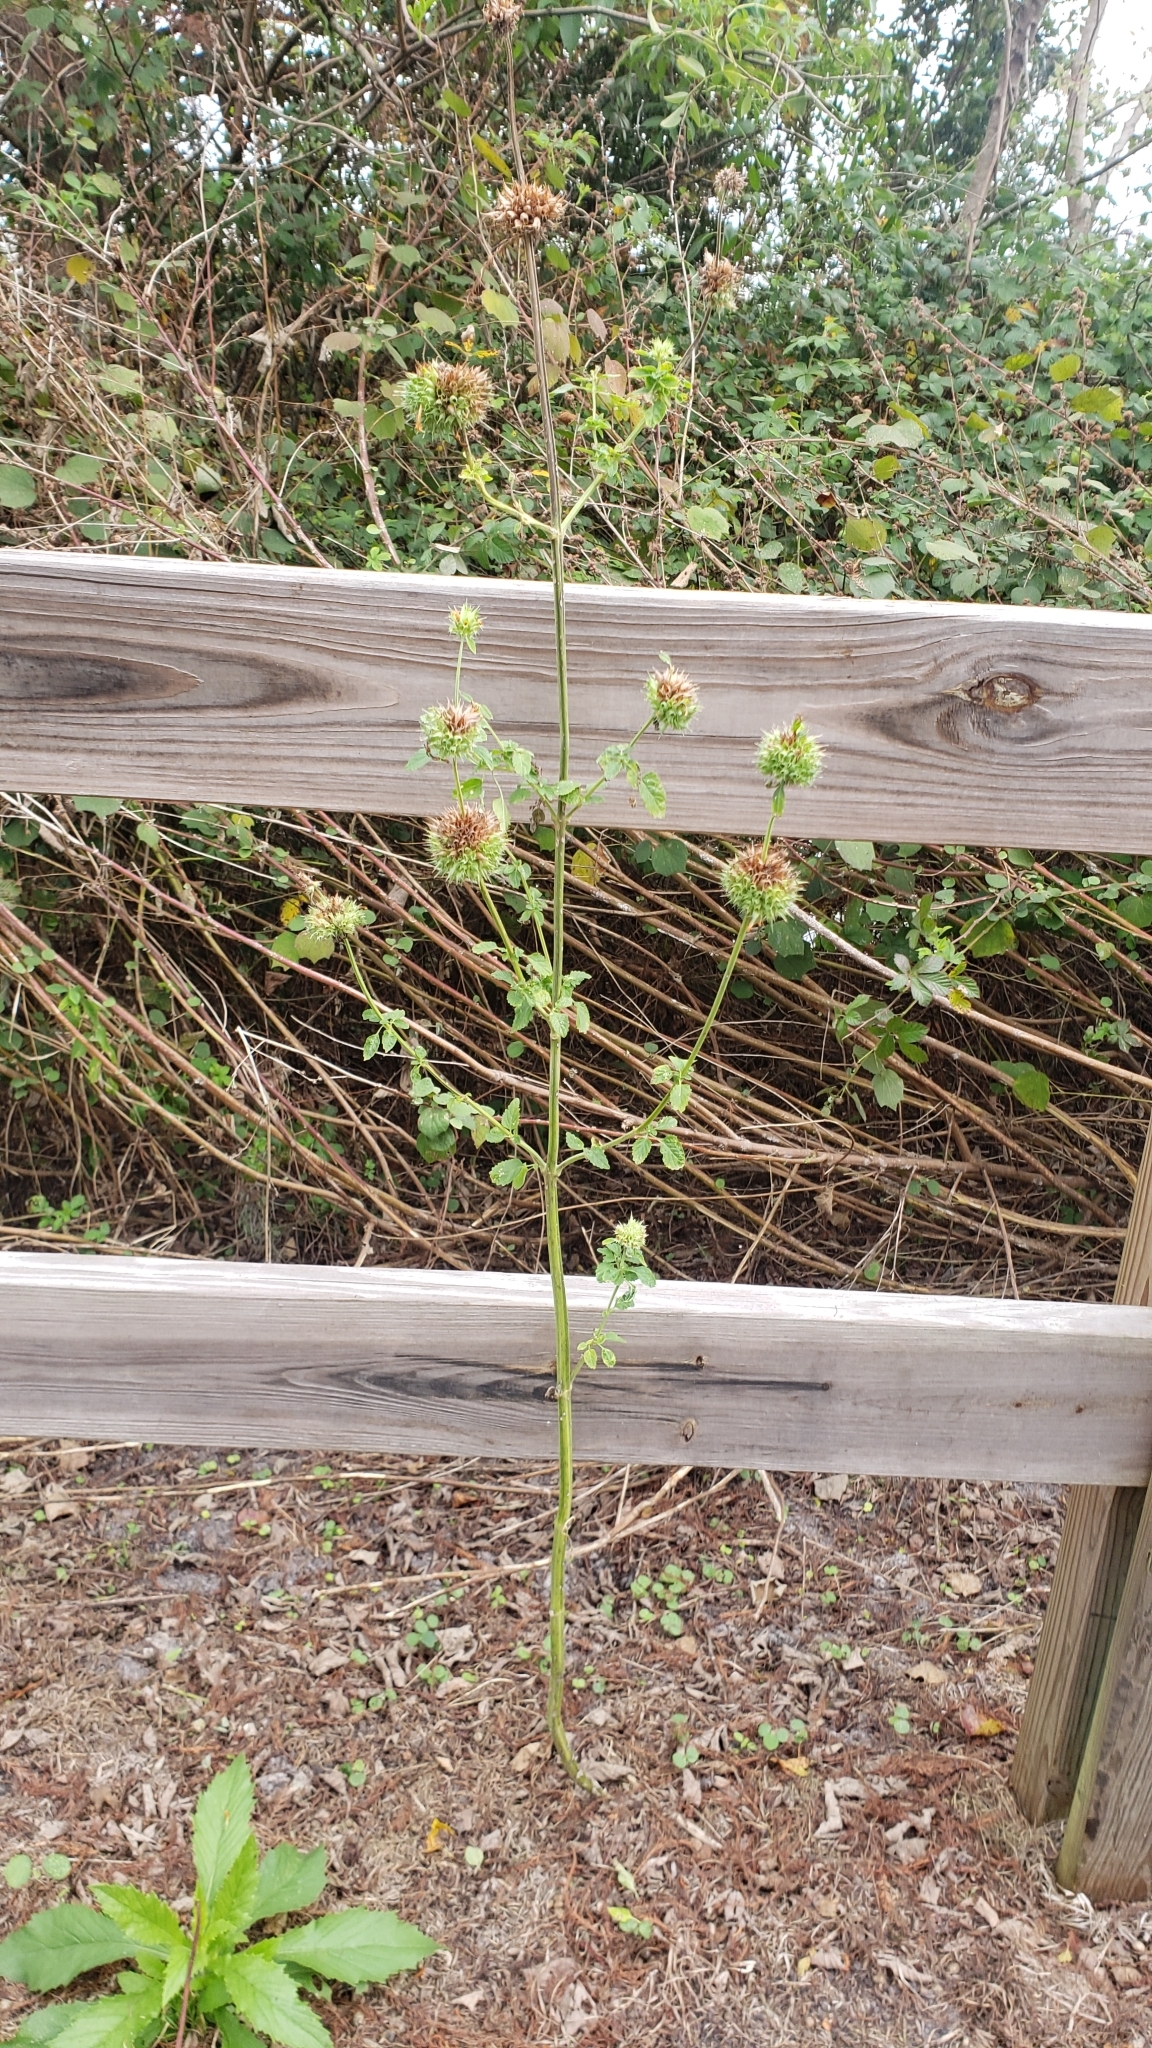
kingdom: Plantae
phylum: Tracheophyta
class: Magnoliopsida
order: Lamiales
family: Lamiaceae
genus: Leonotis
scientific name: Leonotis nepetifolia
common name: Christmas candlestick
